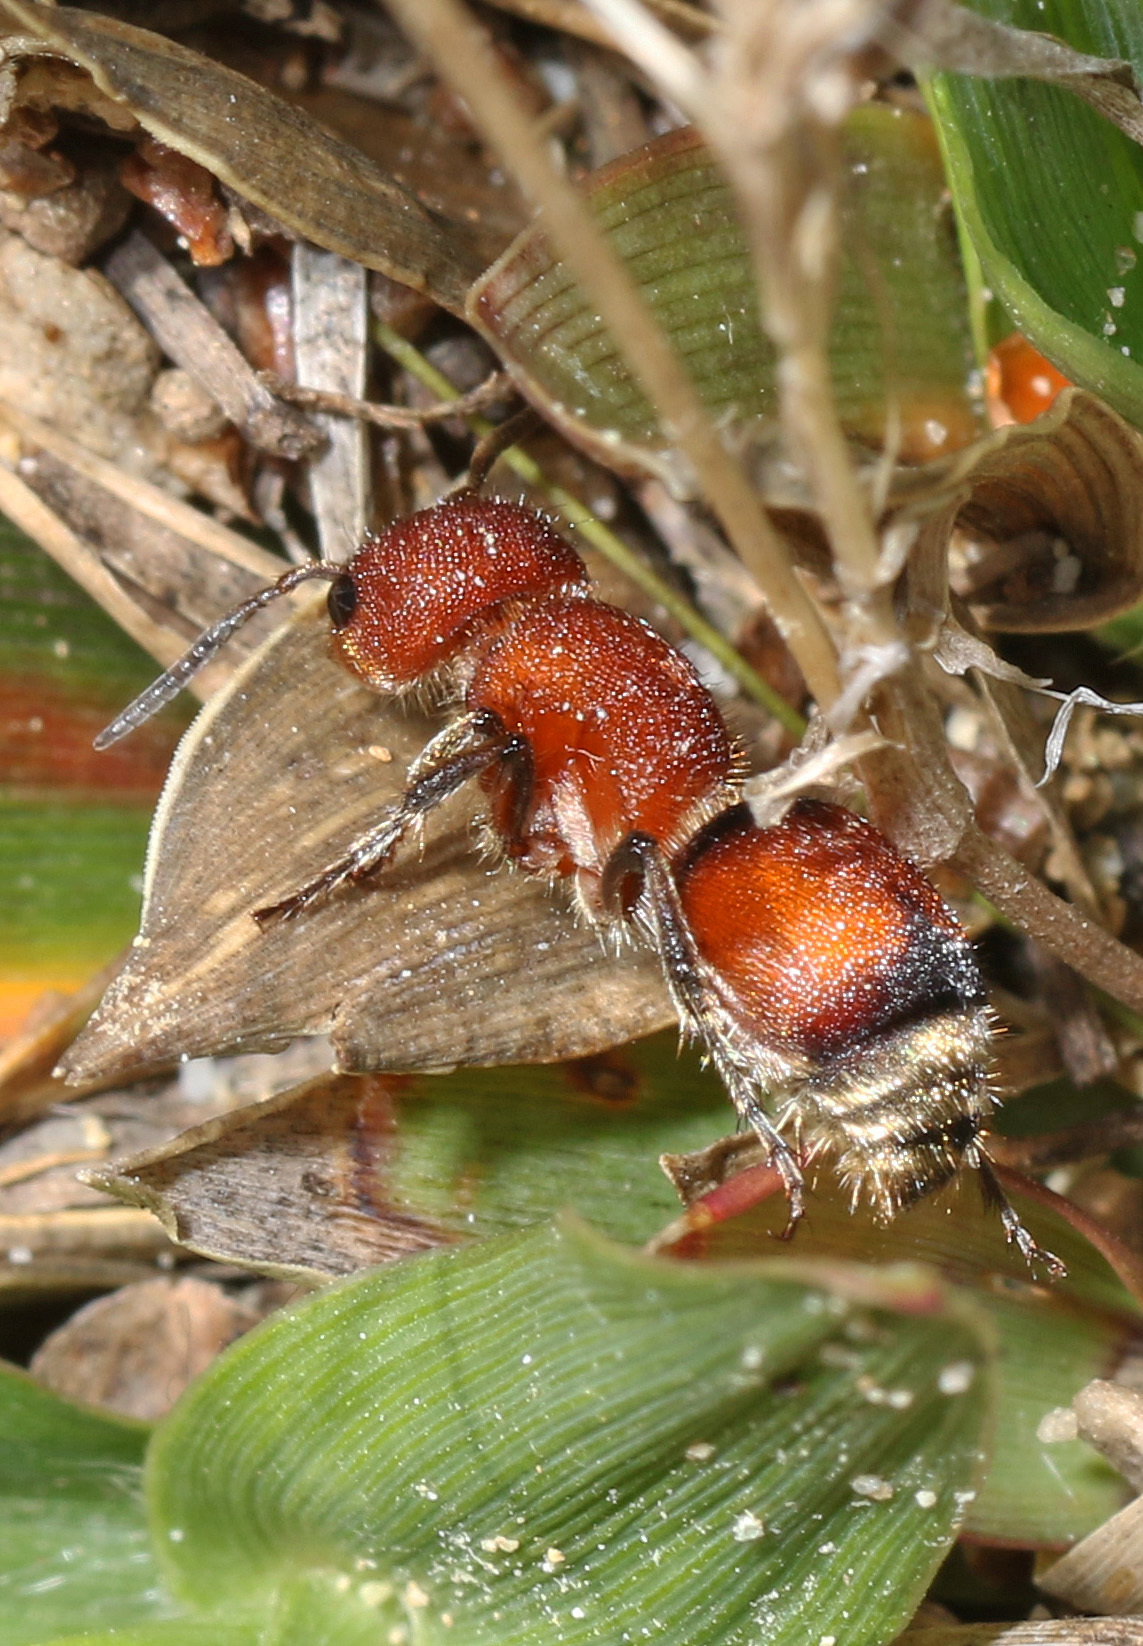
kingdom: Animalia
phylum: Arthropoda
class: Insecta
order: Hymenoptera
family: Mutillidae
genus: Pseudomethoca
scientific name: Pseudomethoca
